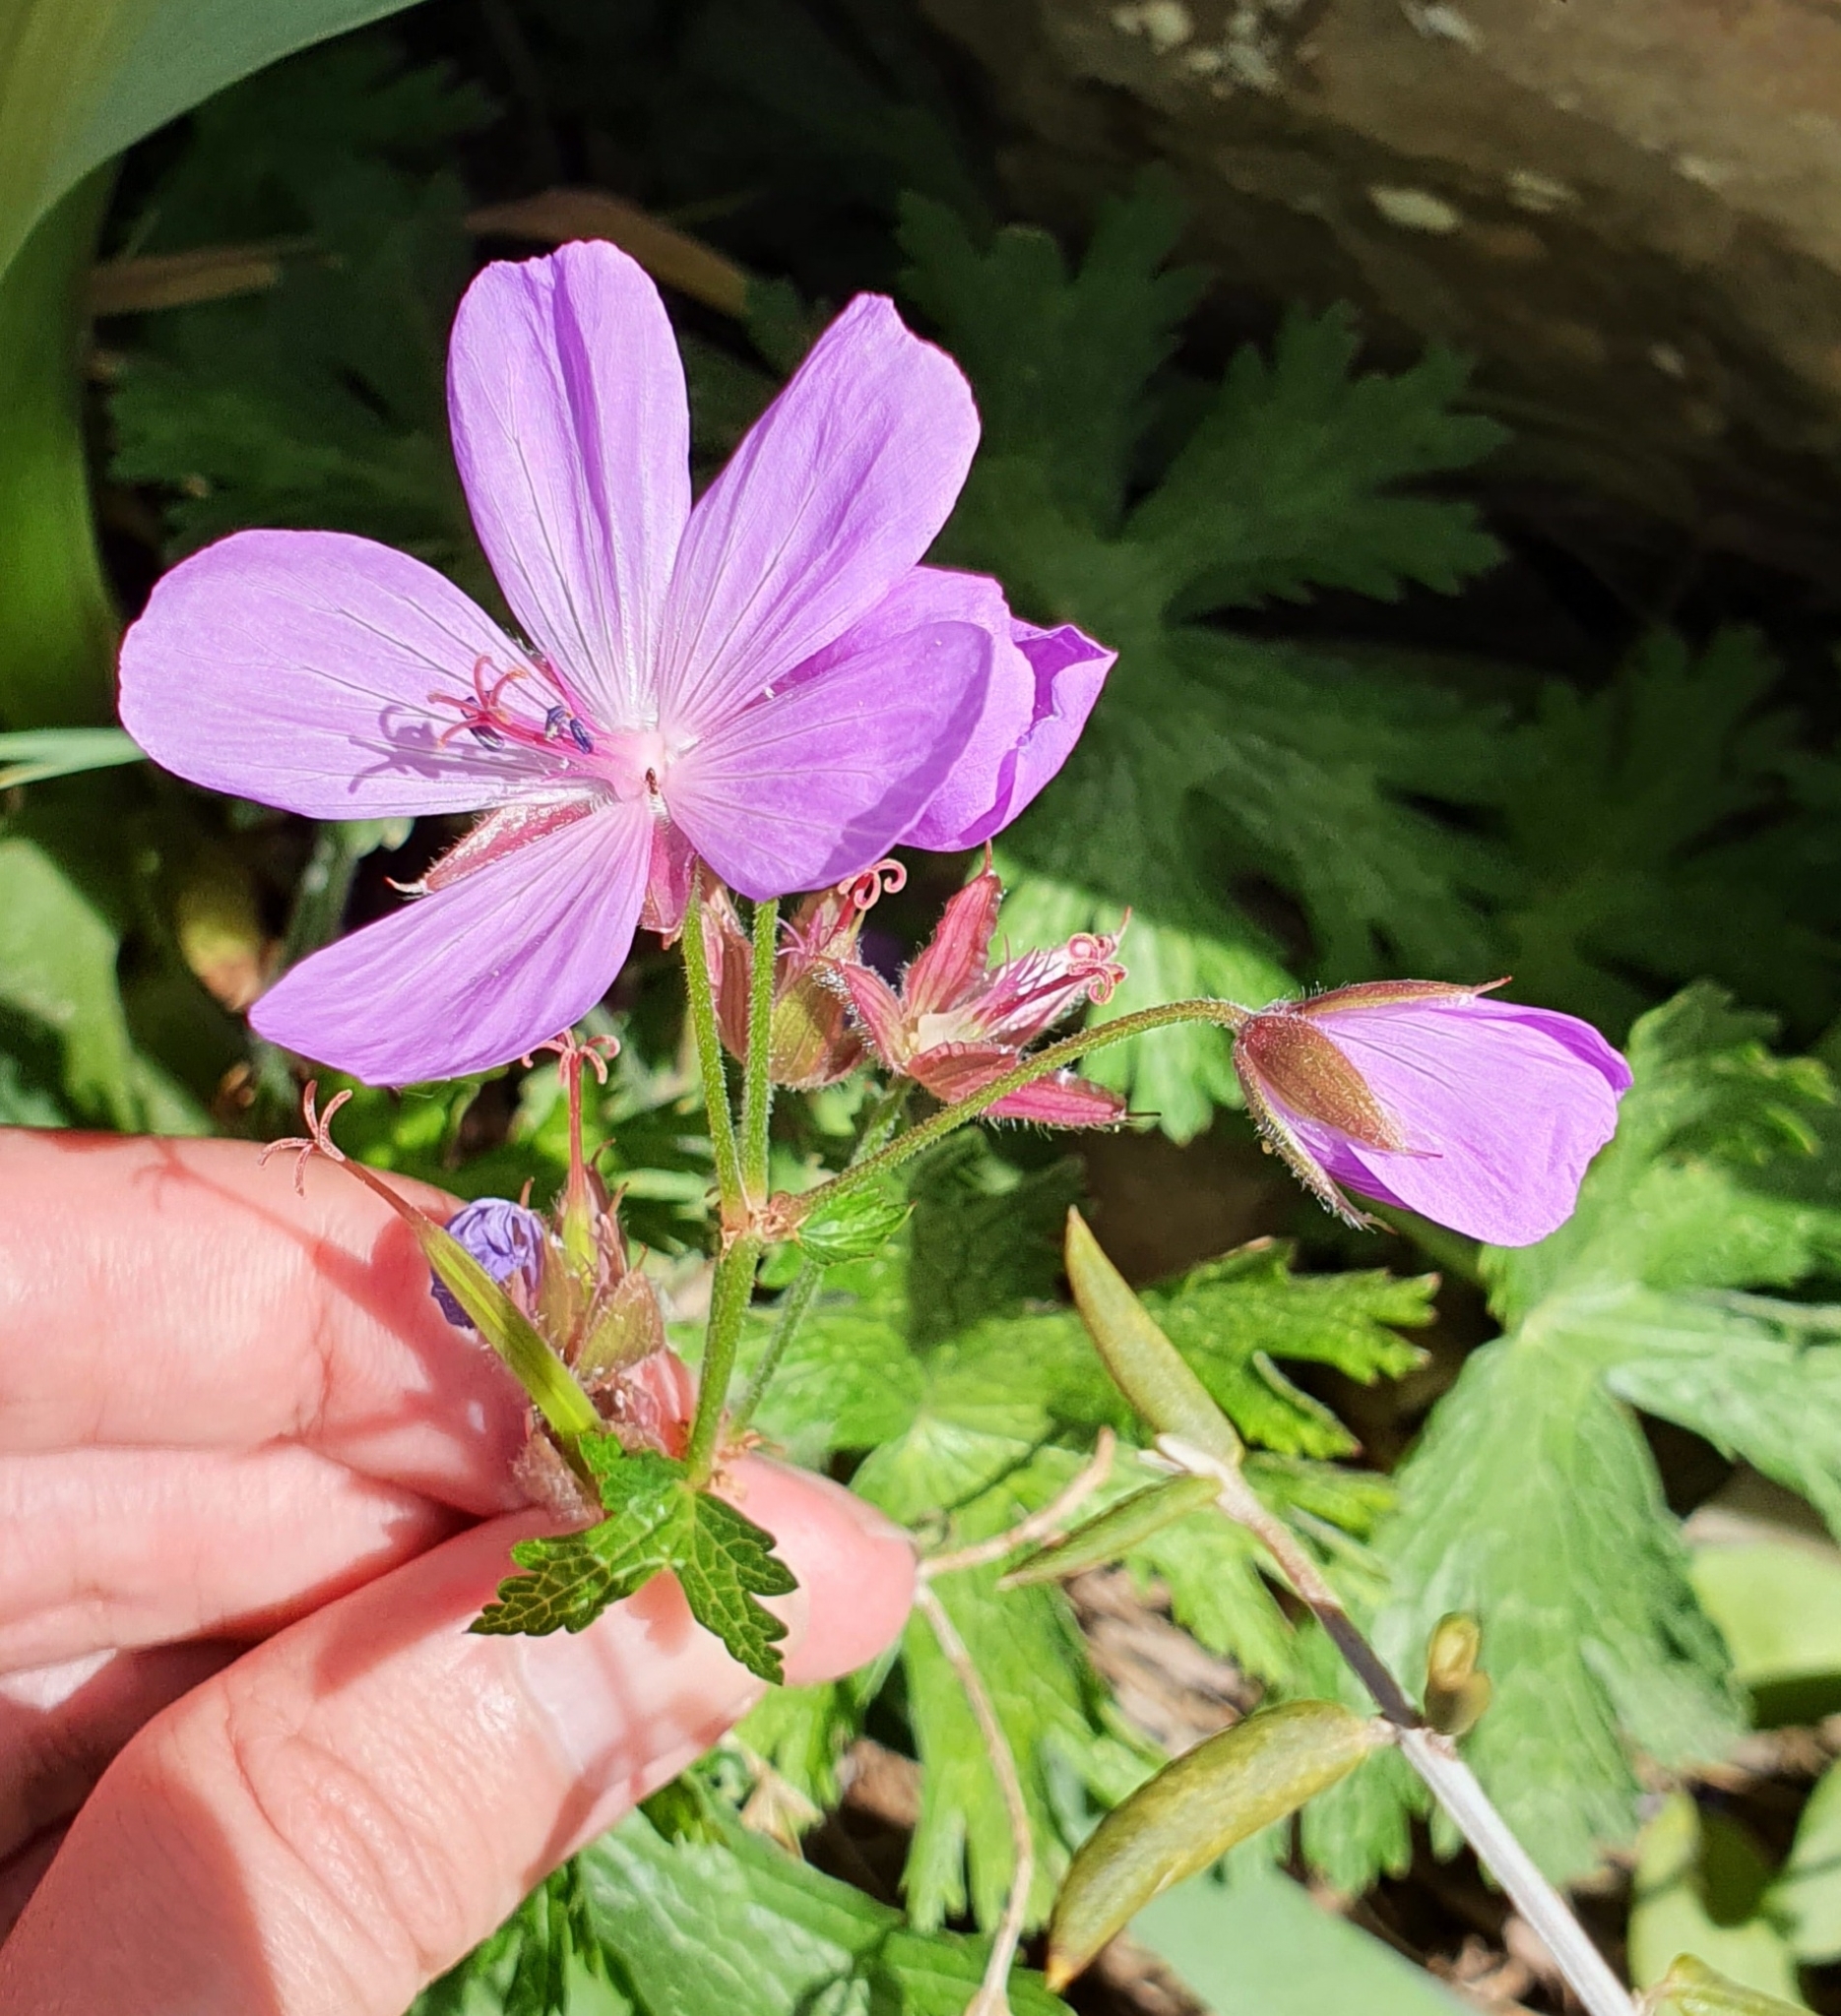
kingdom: Plantae
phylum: Tracheophyta
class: Magnoliopsida
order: Geraniales
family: Geraniaceae
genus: Geranium
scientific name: Geranium atlanticum
